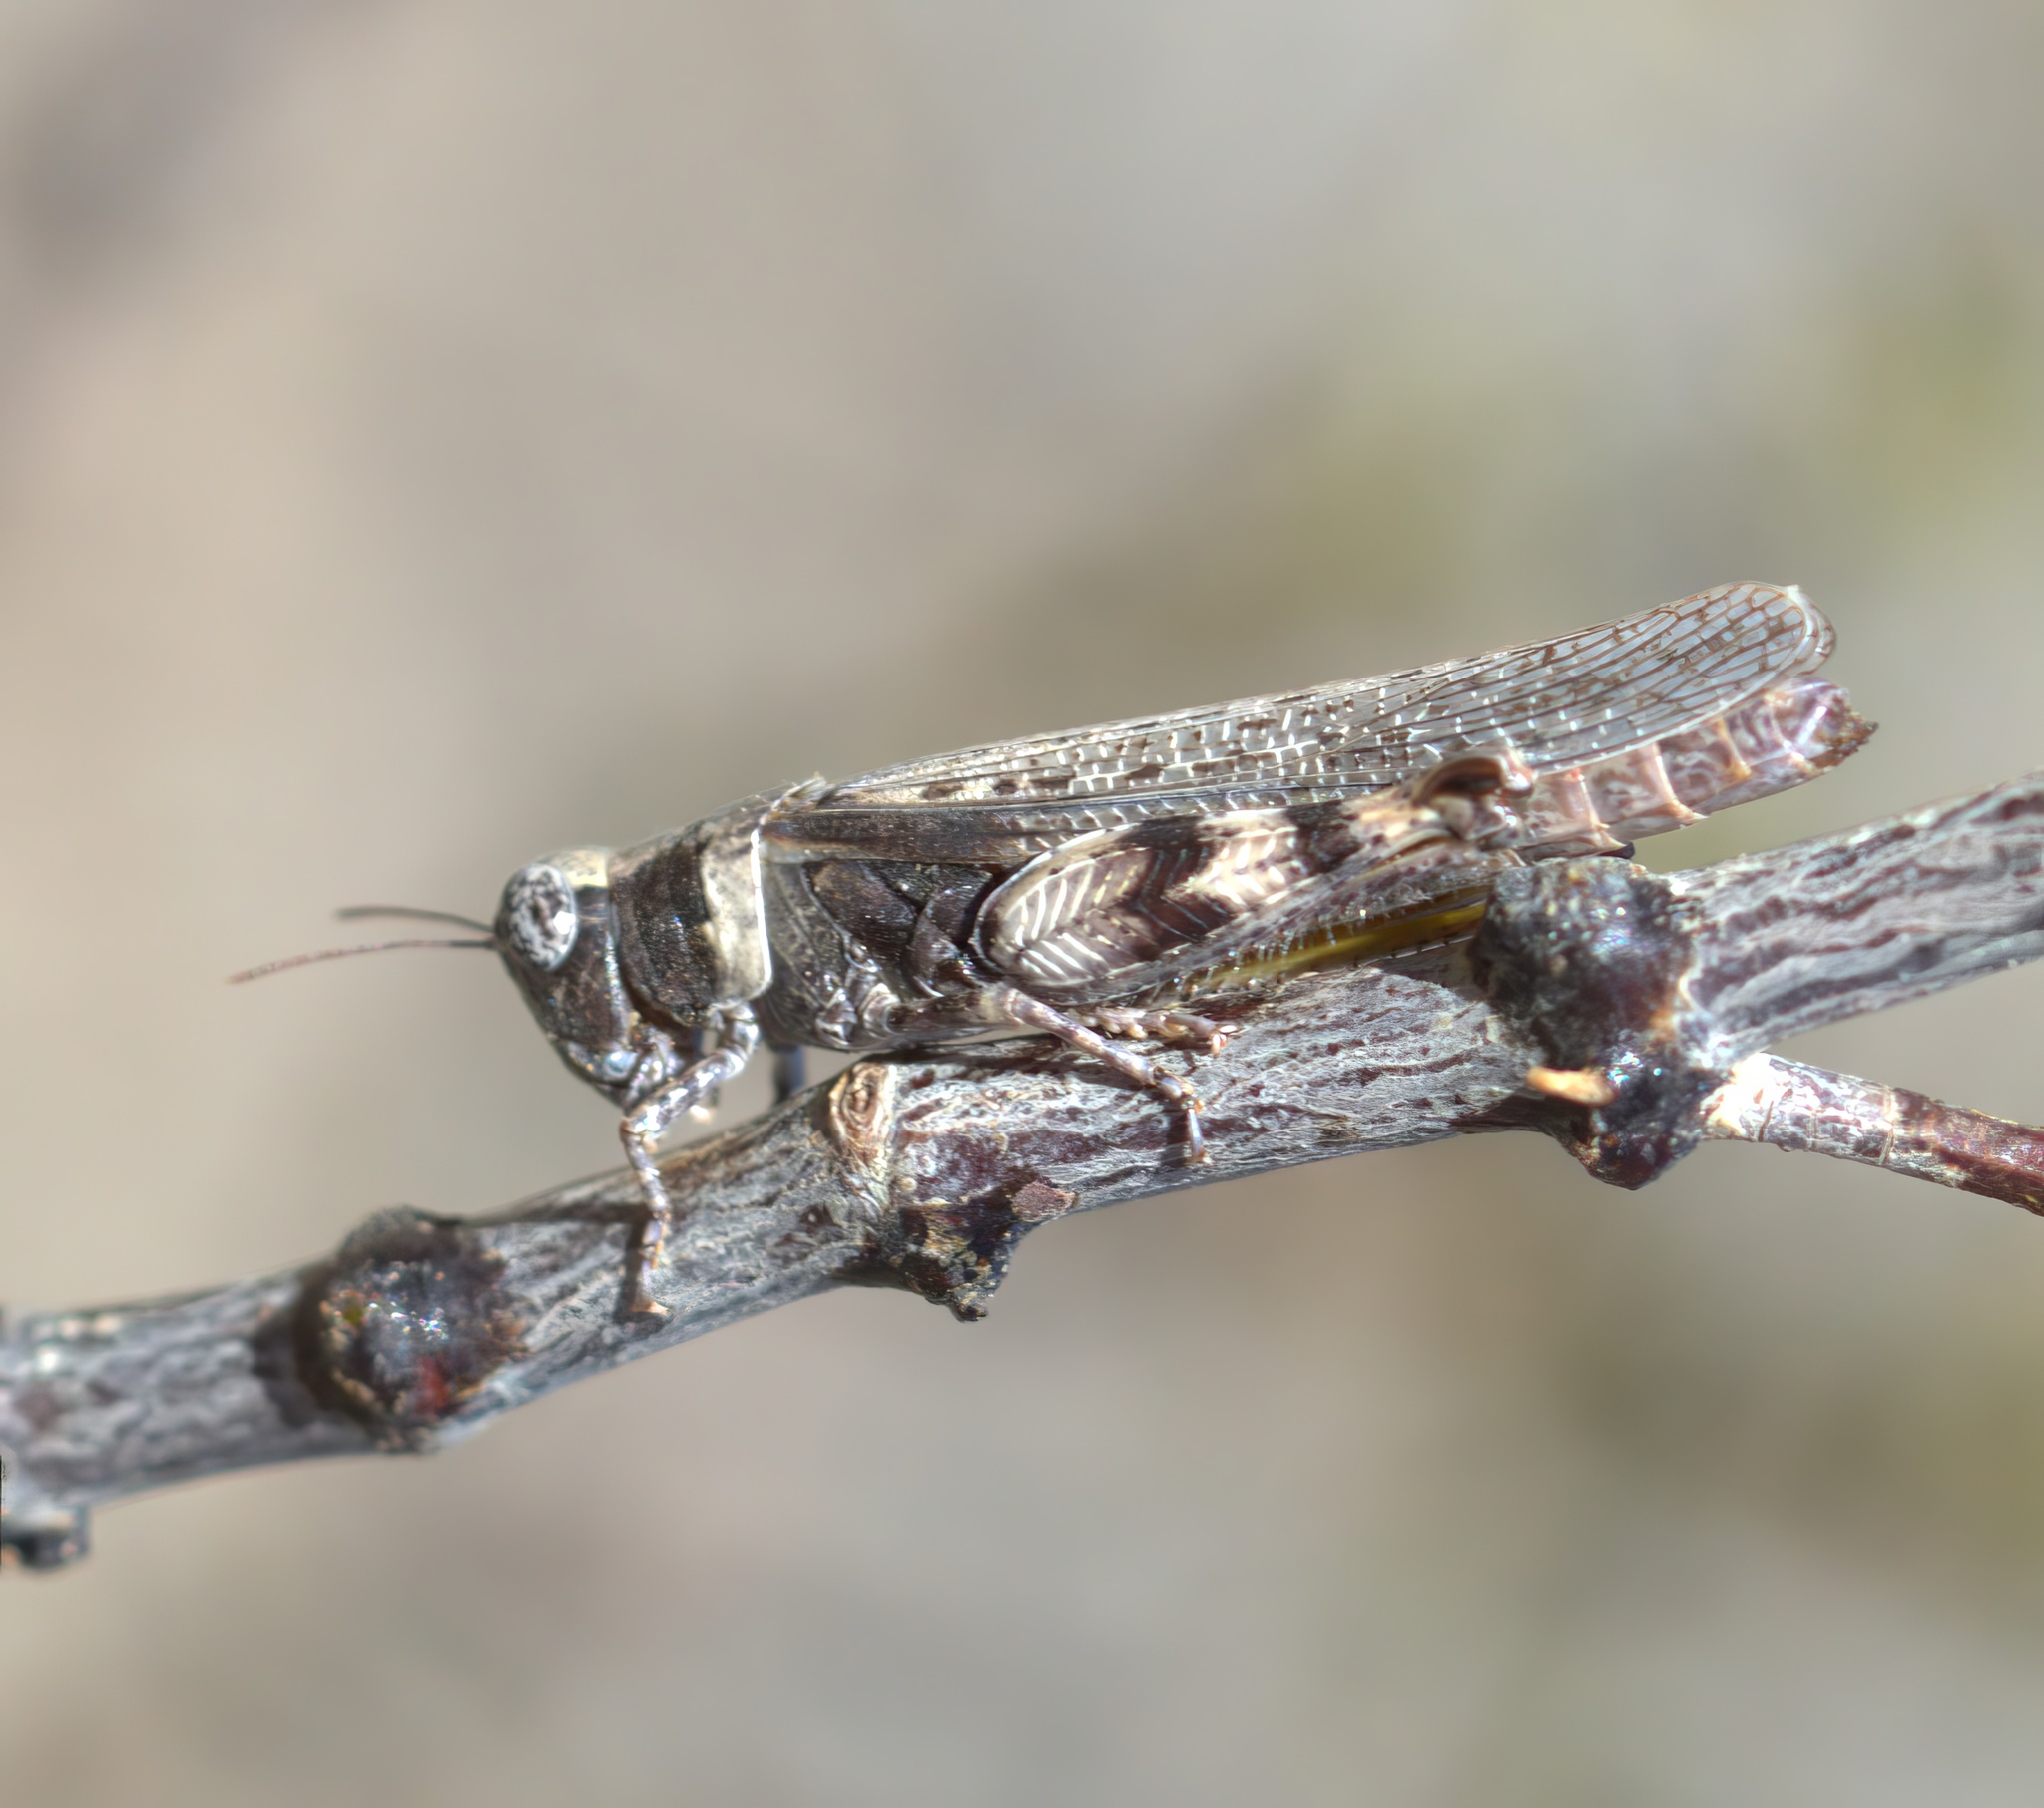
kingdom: Animalia
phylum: Arthropoda
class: Insecta
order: Orthoptera
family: Acrididae
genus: Ligurotettix
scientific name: Ligurotettix coquilletti
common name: Desert clicker grasshopper
